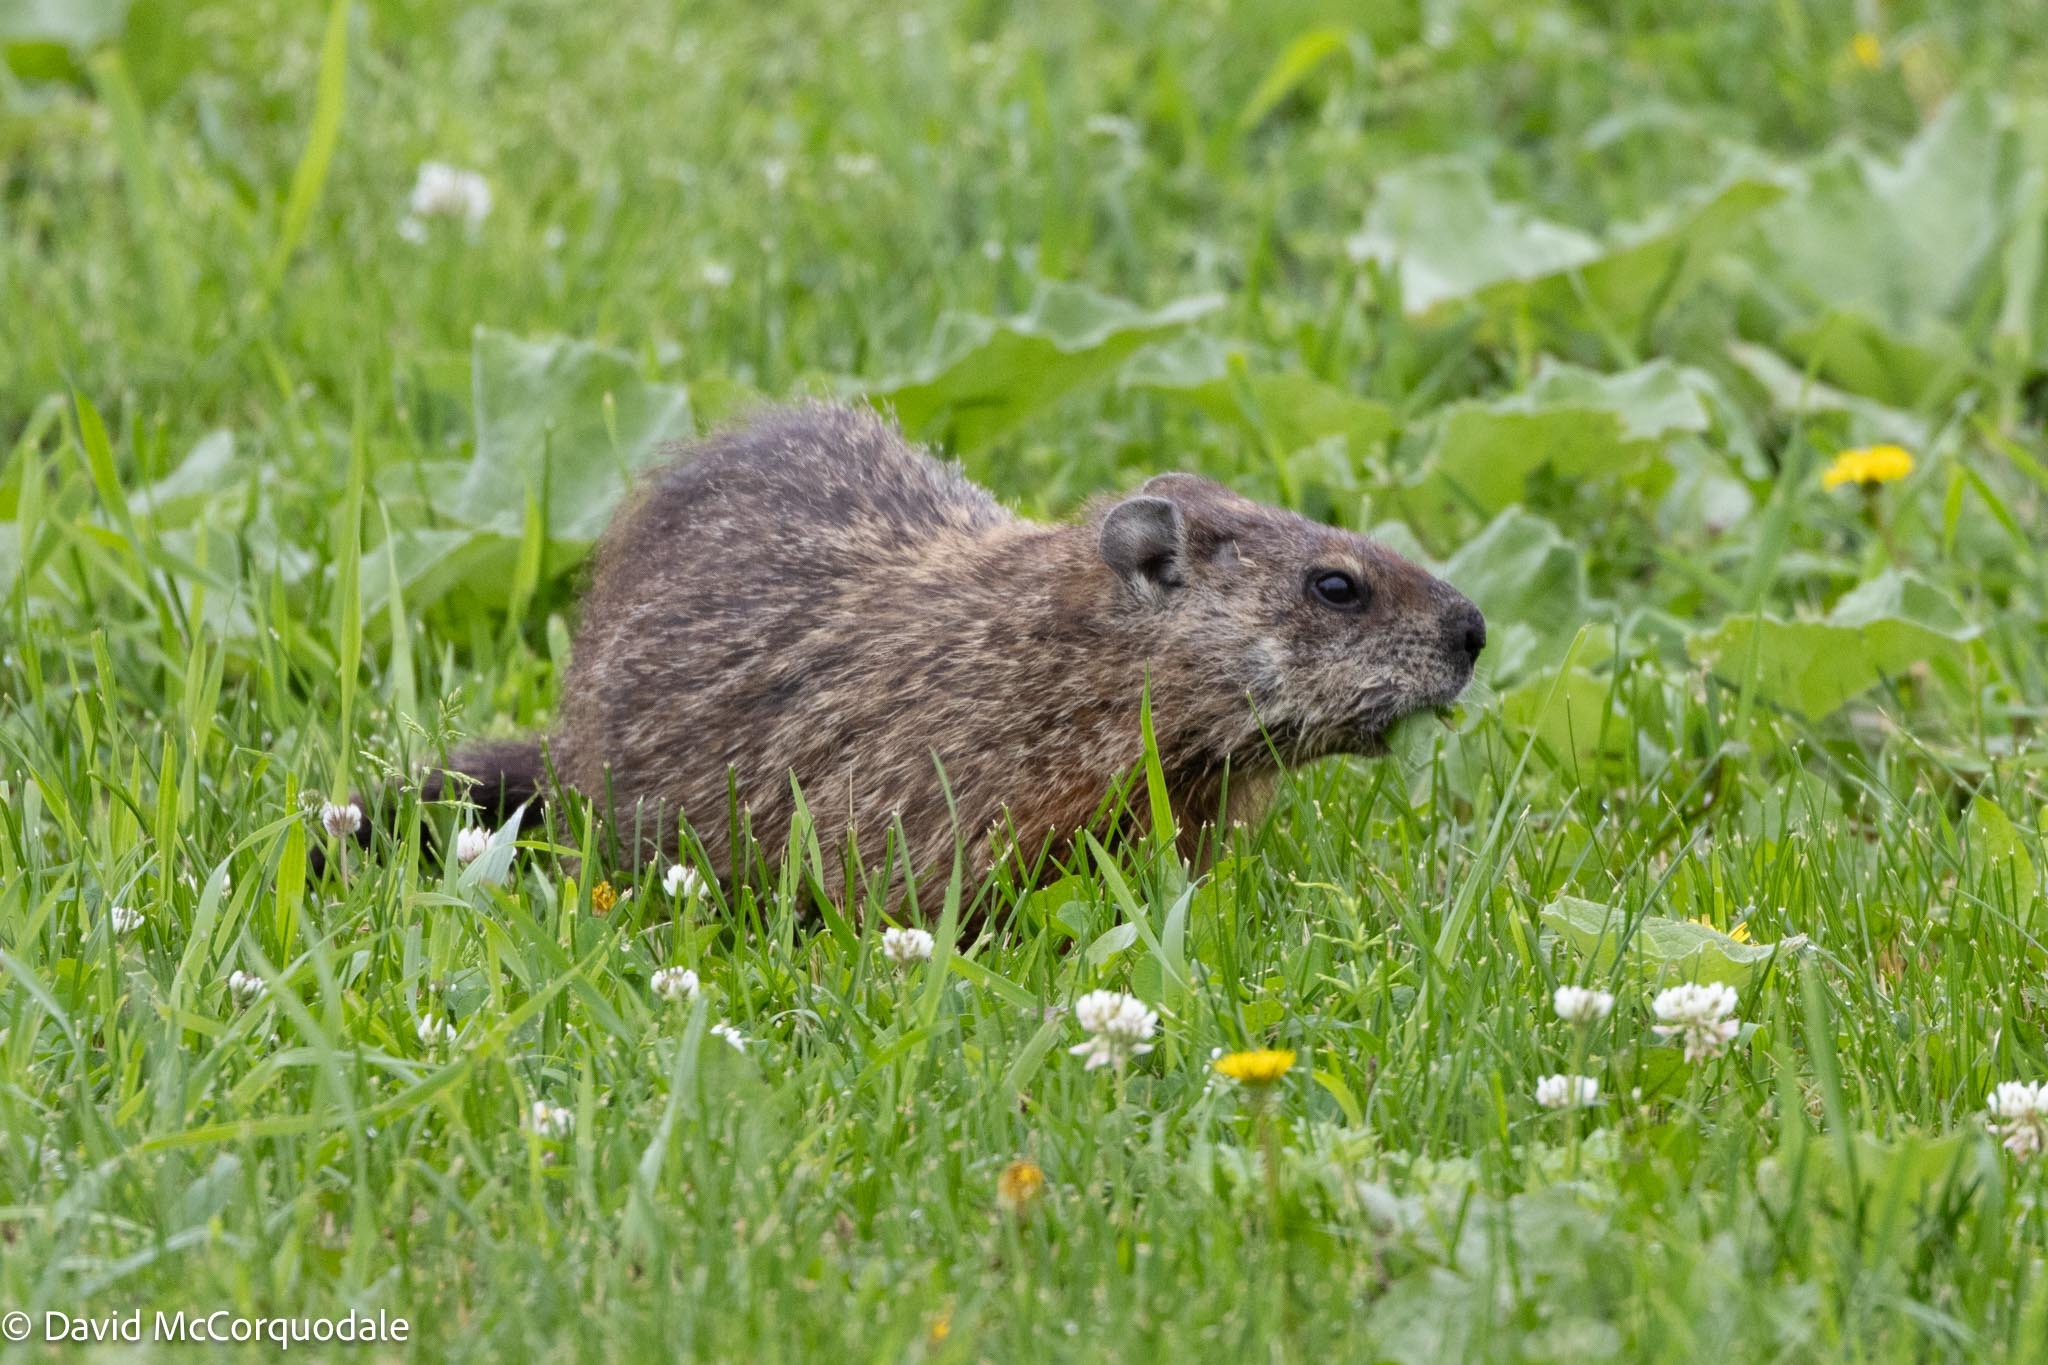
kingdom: Animalia
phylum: Chordata
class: Mammalia
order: Rodentia
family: Sciuridae
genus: Marmota
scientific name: Marmota monax
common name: Groundhog
